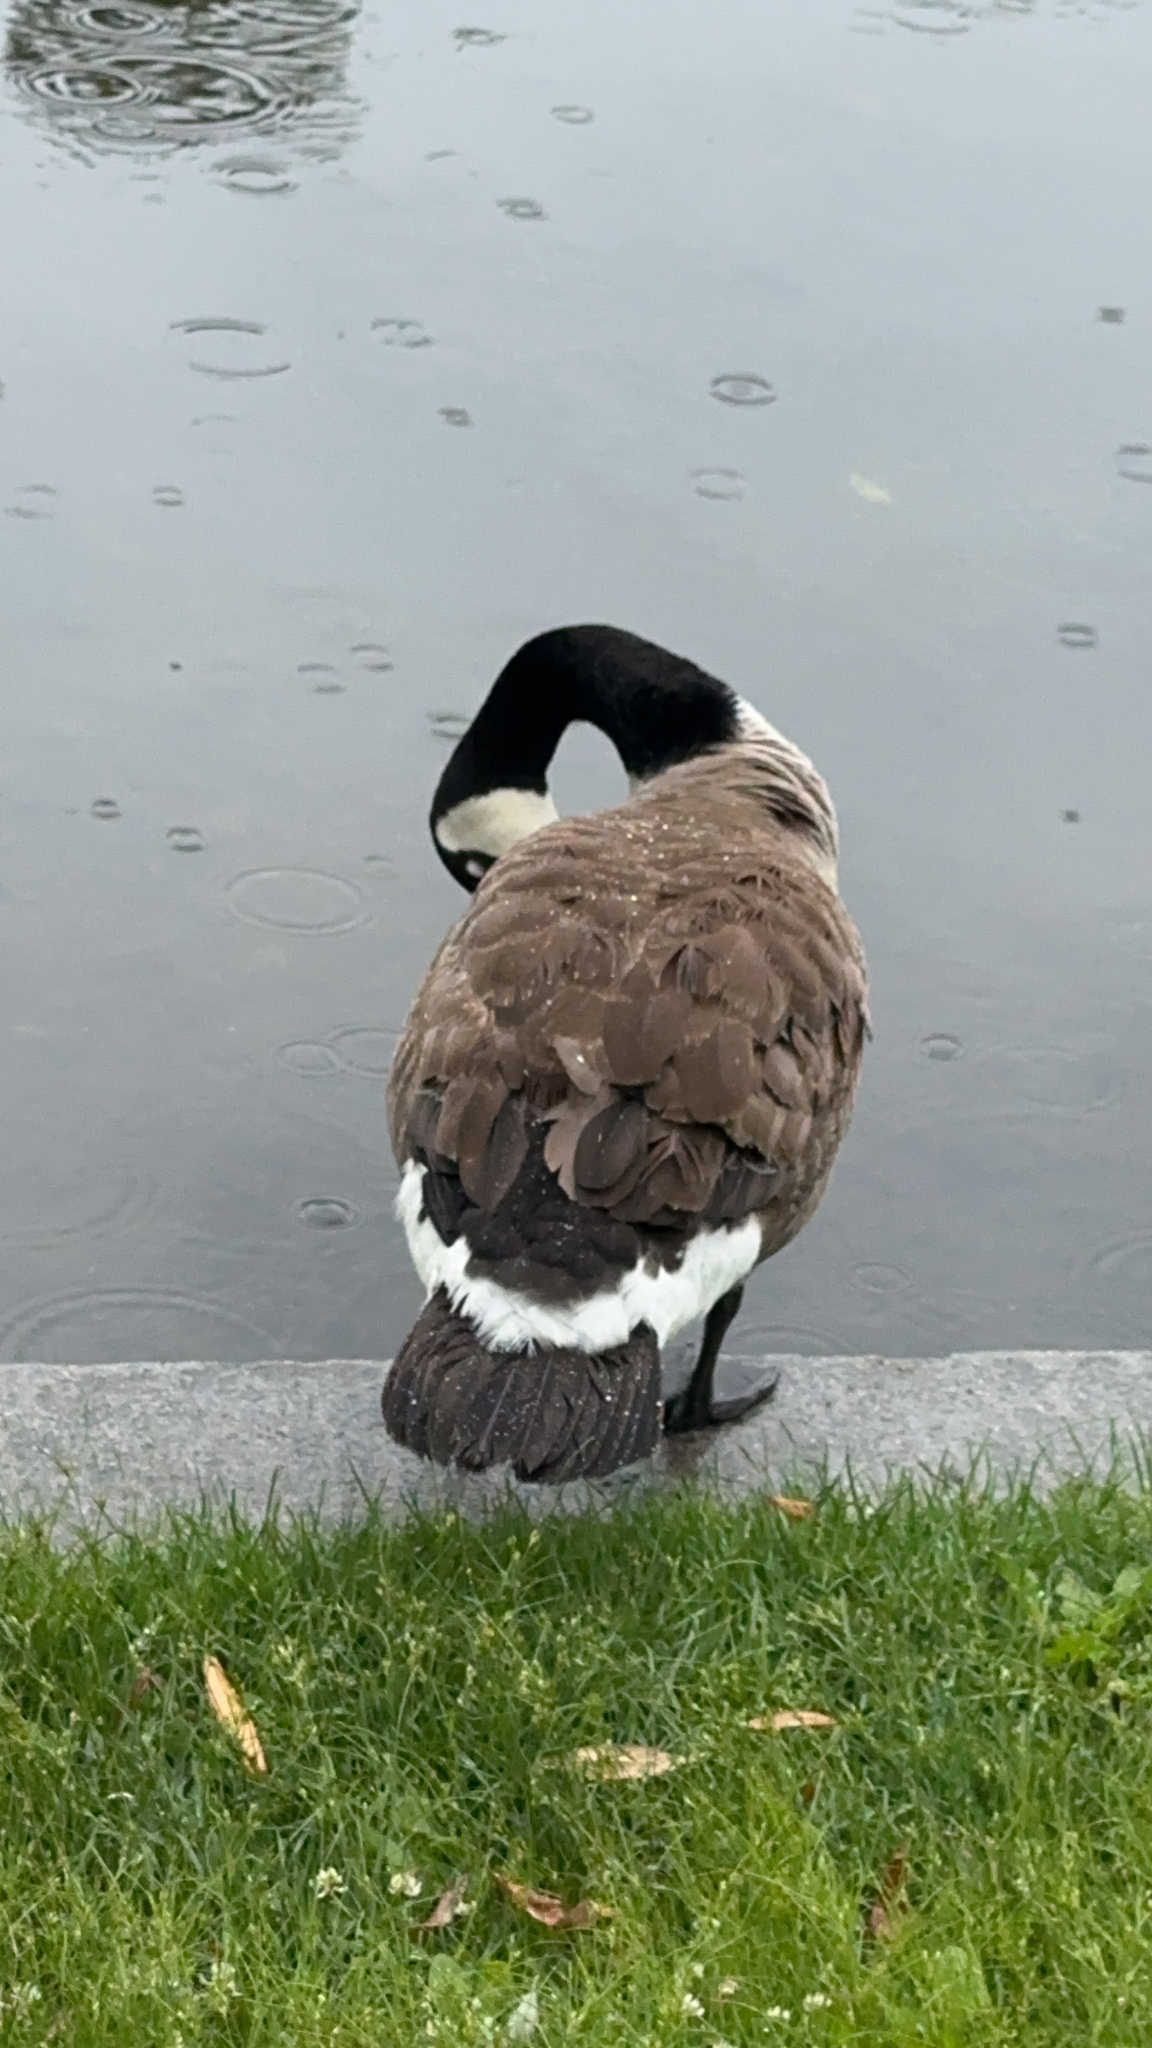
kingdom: Animalia
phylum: Chordata
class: Aves
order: Anseriformes
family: Anatidae
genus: Branta
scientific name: Branta canadensis
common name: Canada goose
